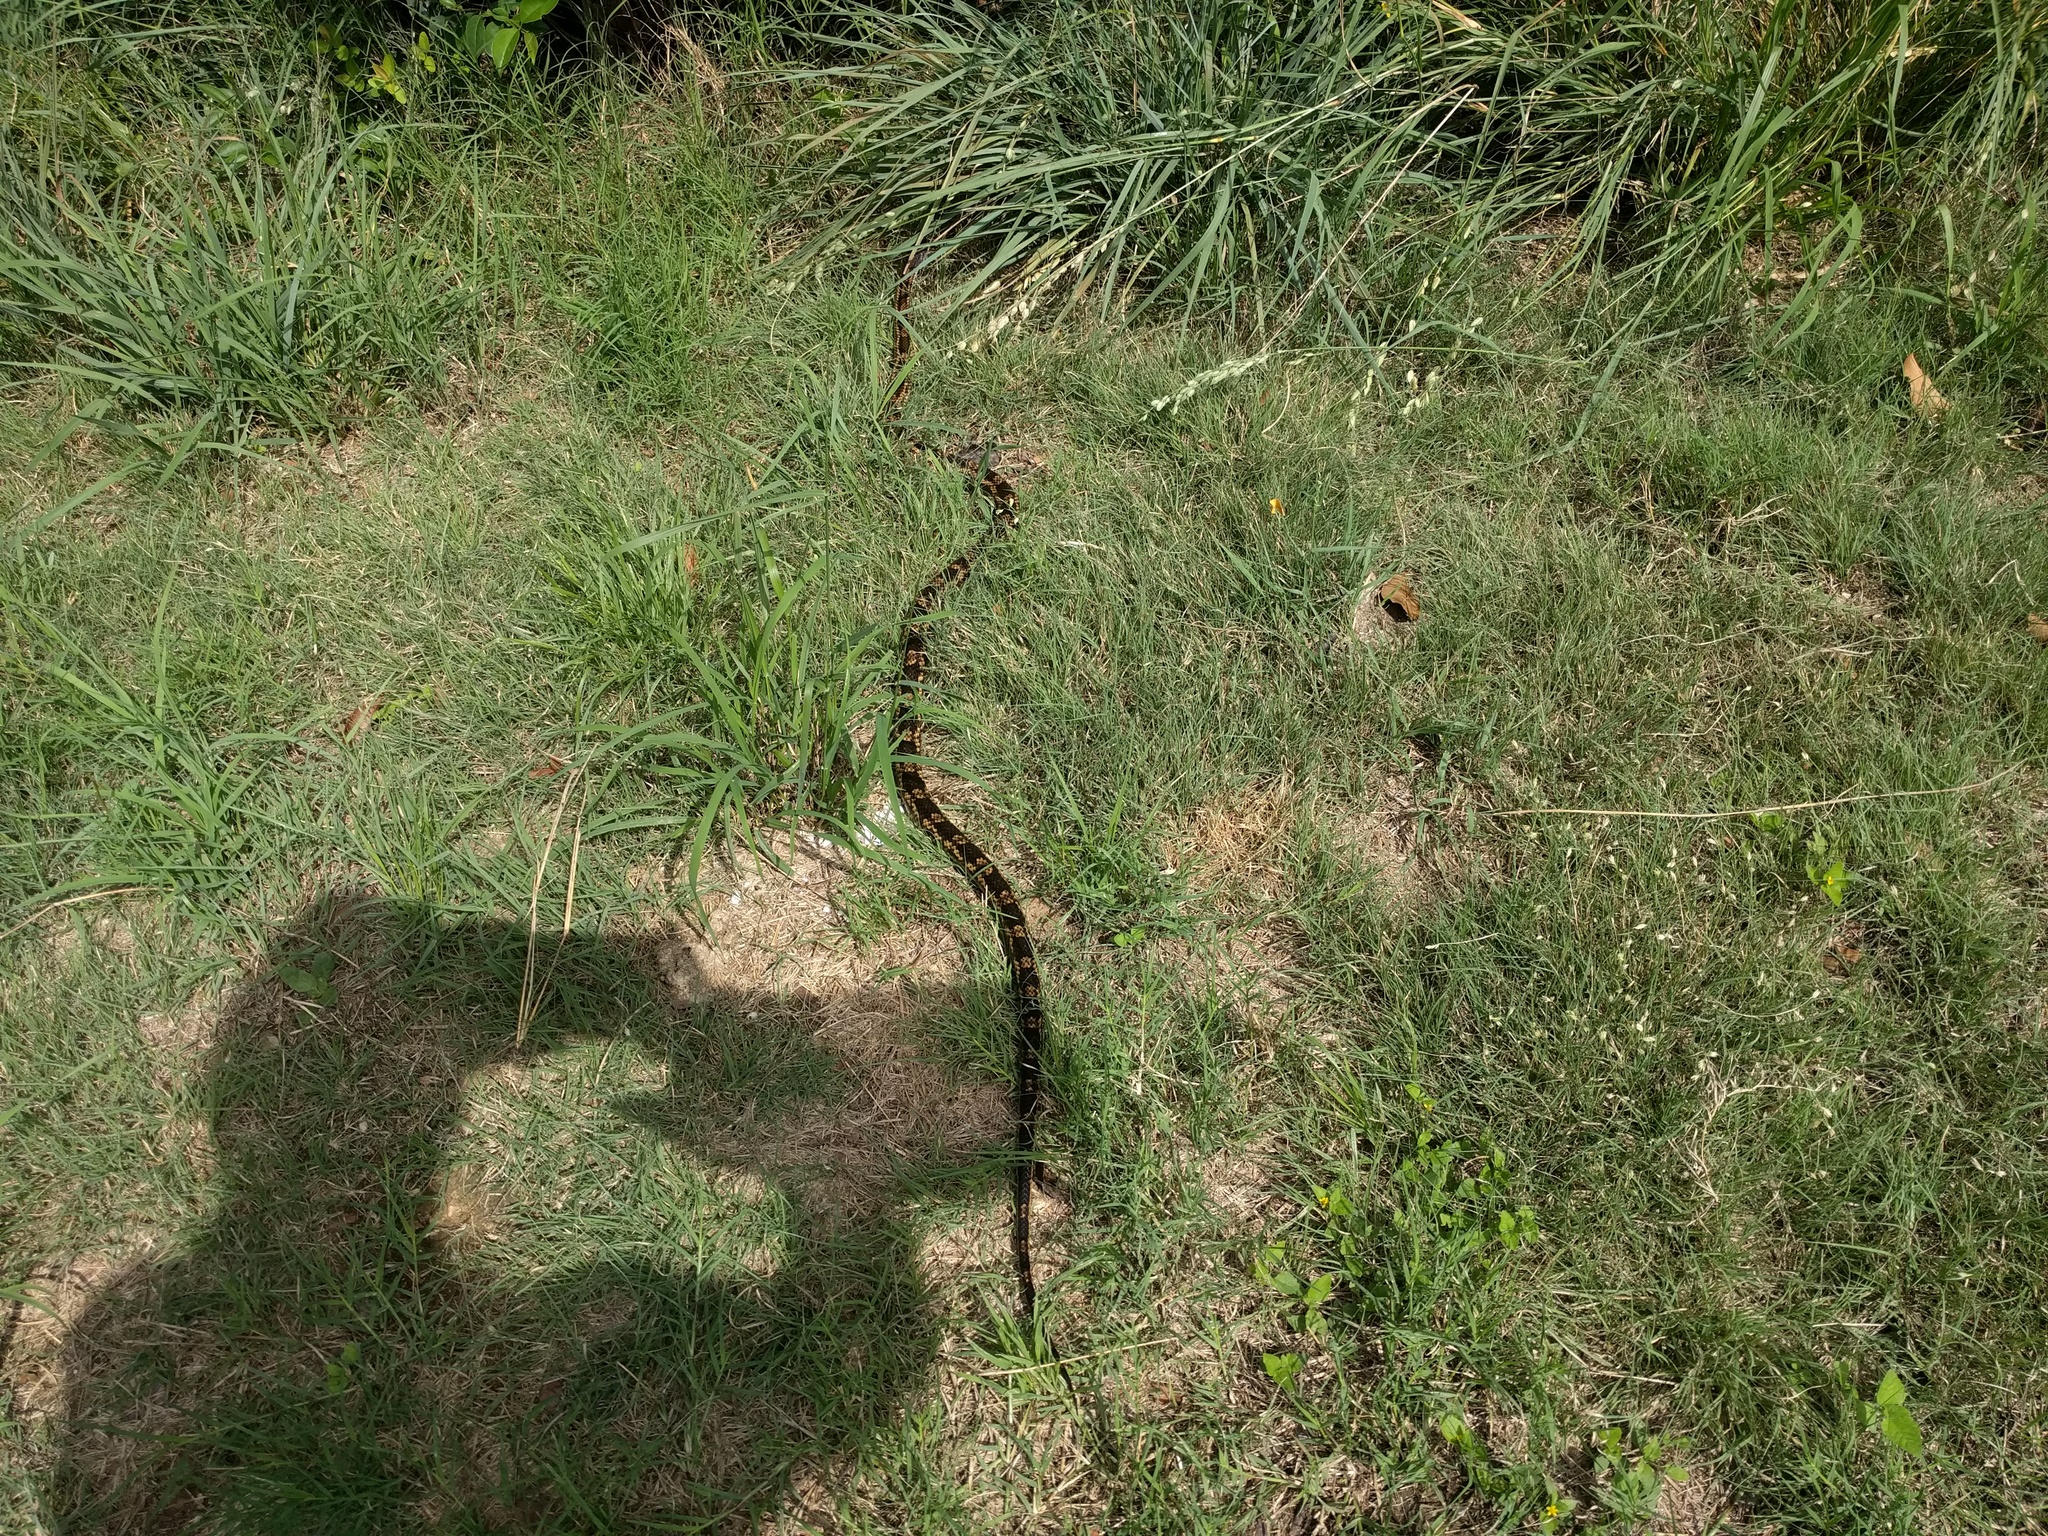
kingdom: Animalia
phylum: Chordata
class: Squamata
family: Colubridae
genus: Pantherophis
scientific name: Pantherophis obsoletus
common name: Black rat snake
